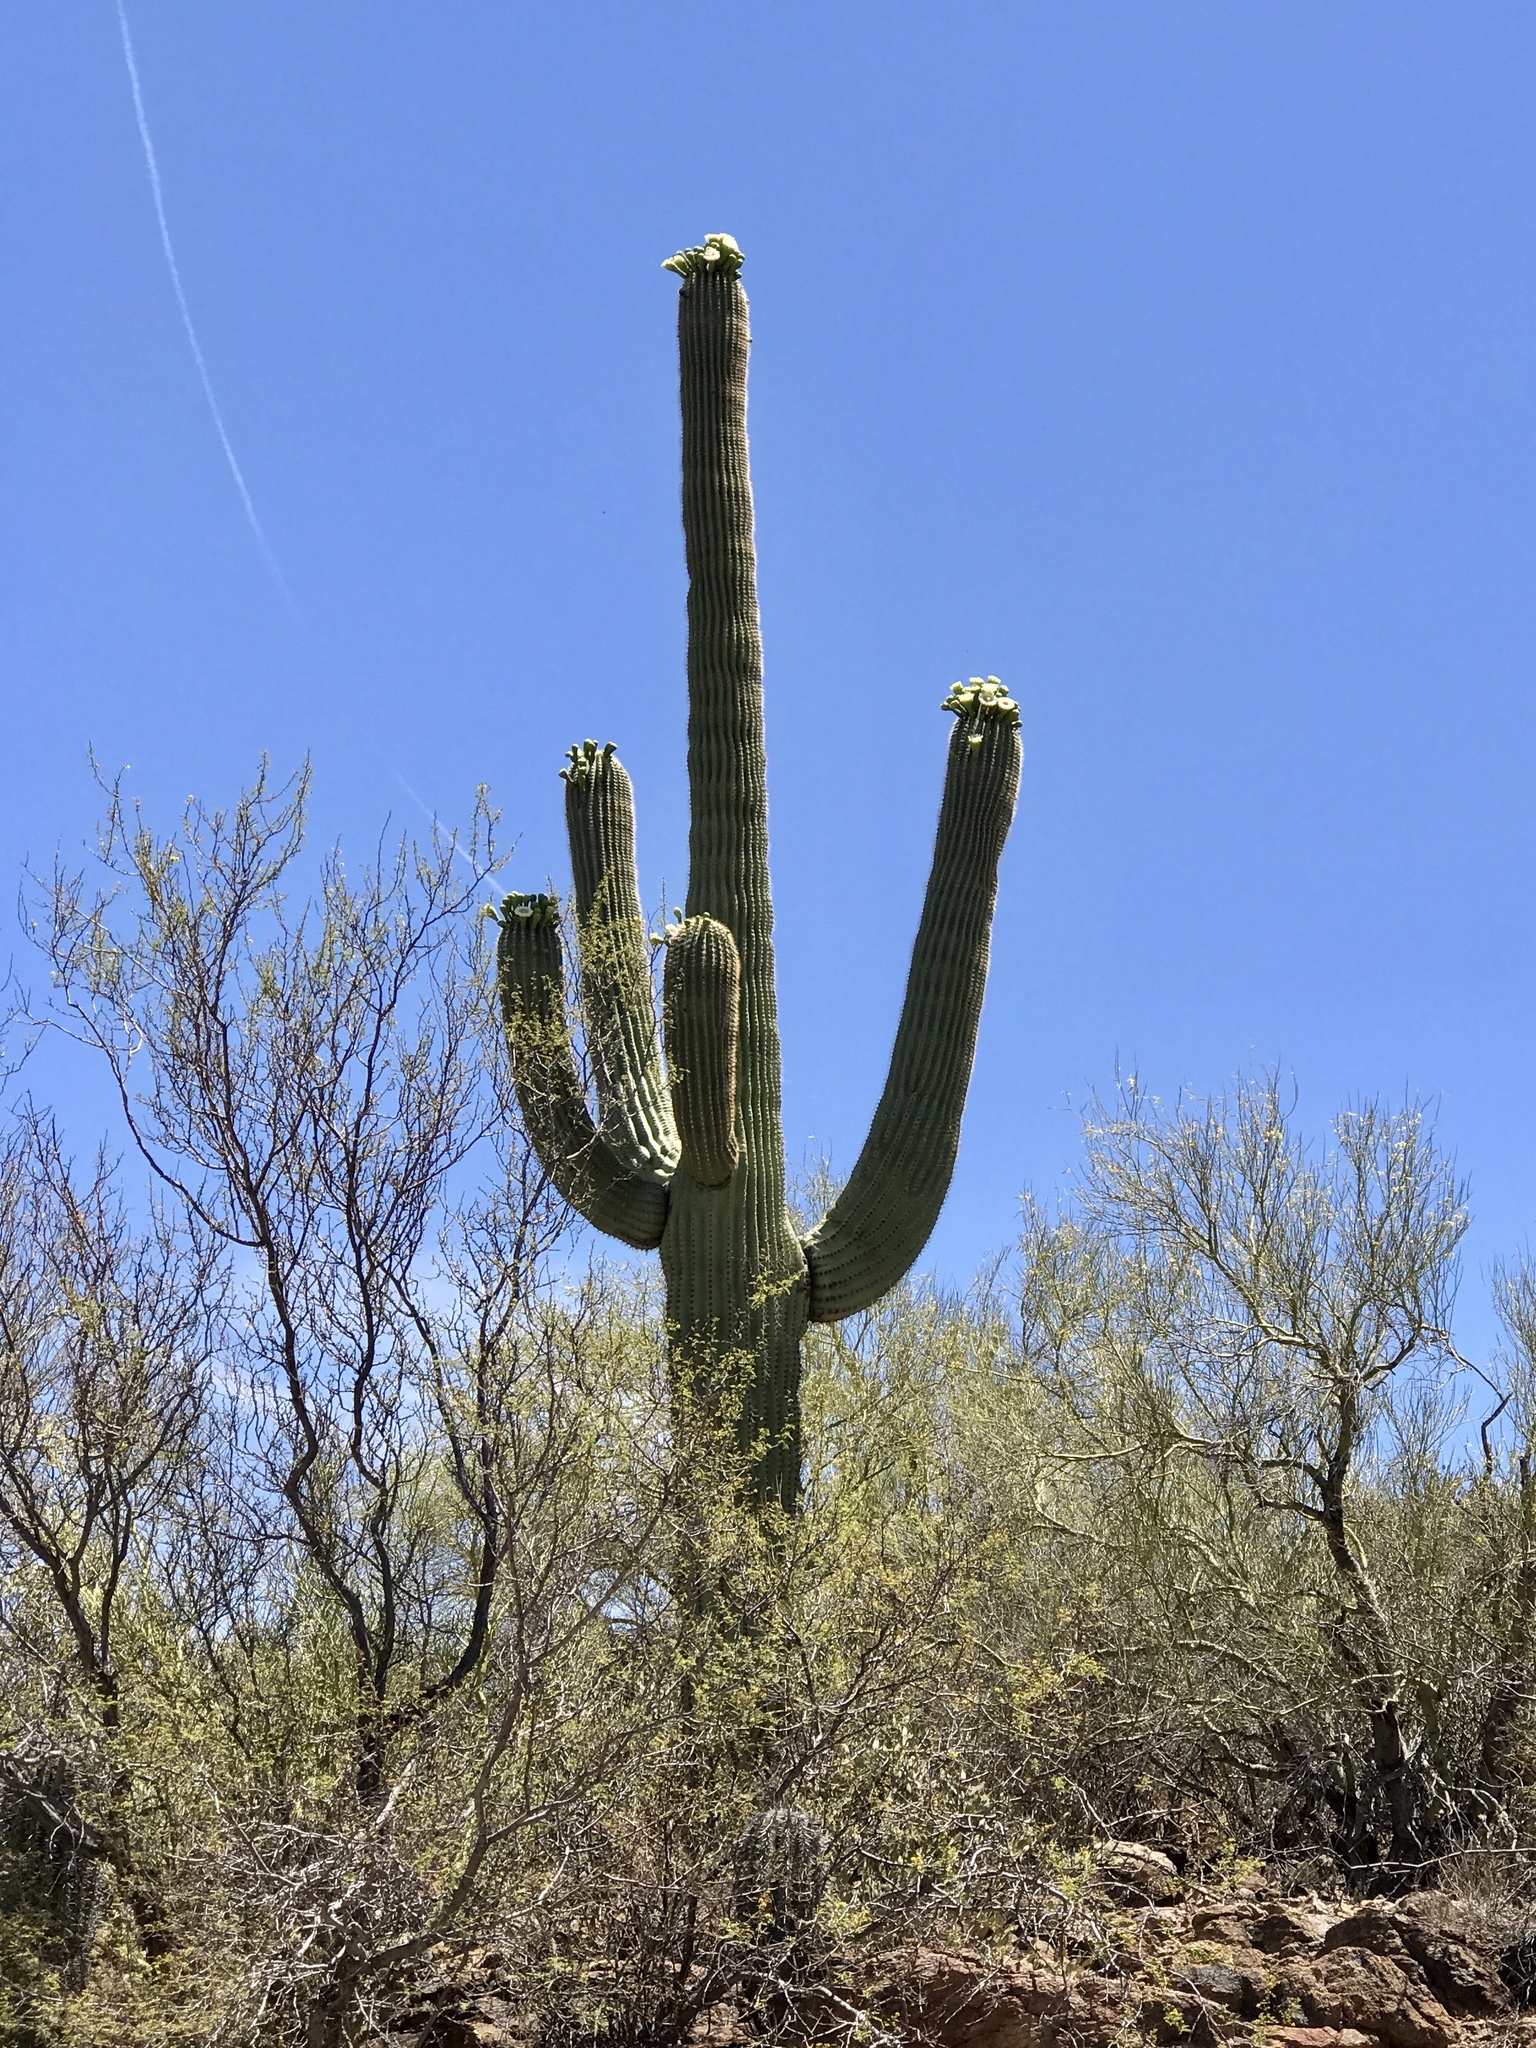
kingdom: Plantae
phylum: Tracheophyta
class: Magnoliopsida
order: Caryophyllales
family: Cactaceae
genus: Carnegiea
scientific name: Carnegiea gigantea
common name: Saguaro
